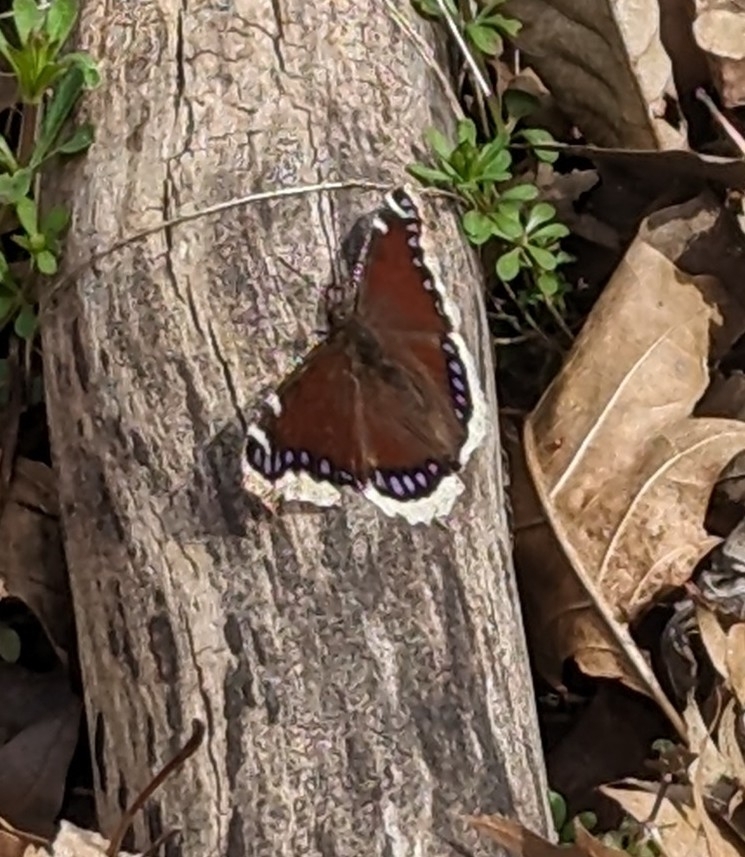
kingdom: Animalia
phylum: Arthropoda
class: Insecta
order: Lepidoptera
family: Nymphalidae
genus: Nymphalis
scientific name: Nymphalis antiopa
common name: Camberwell beauty
